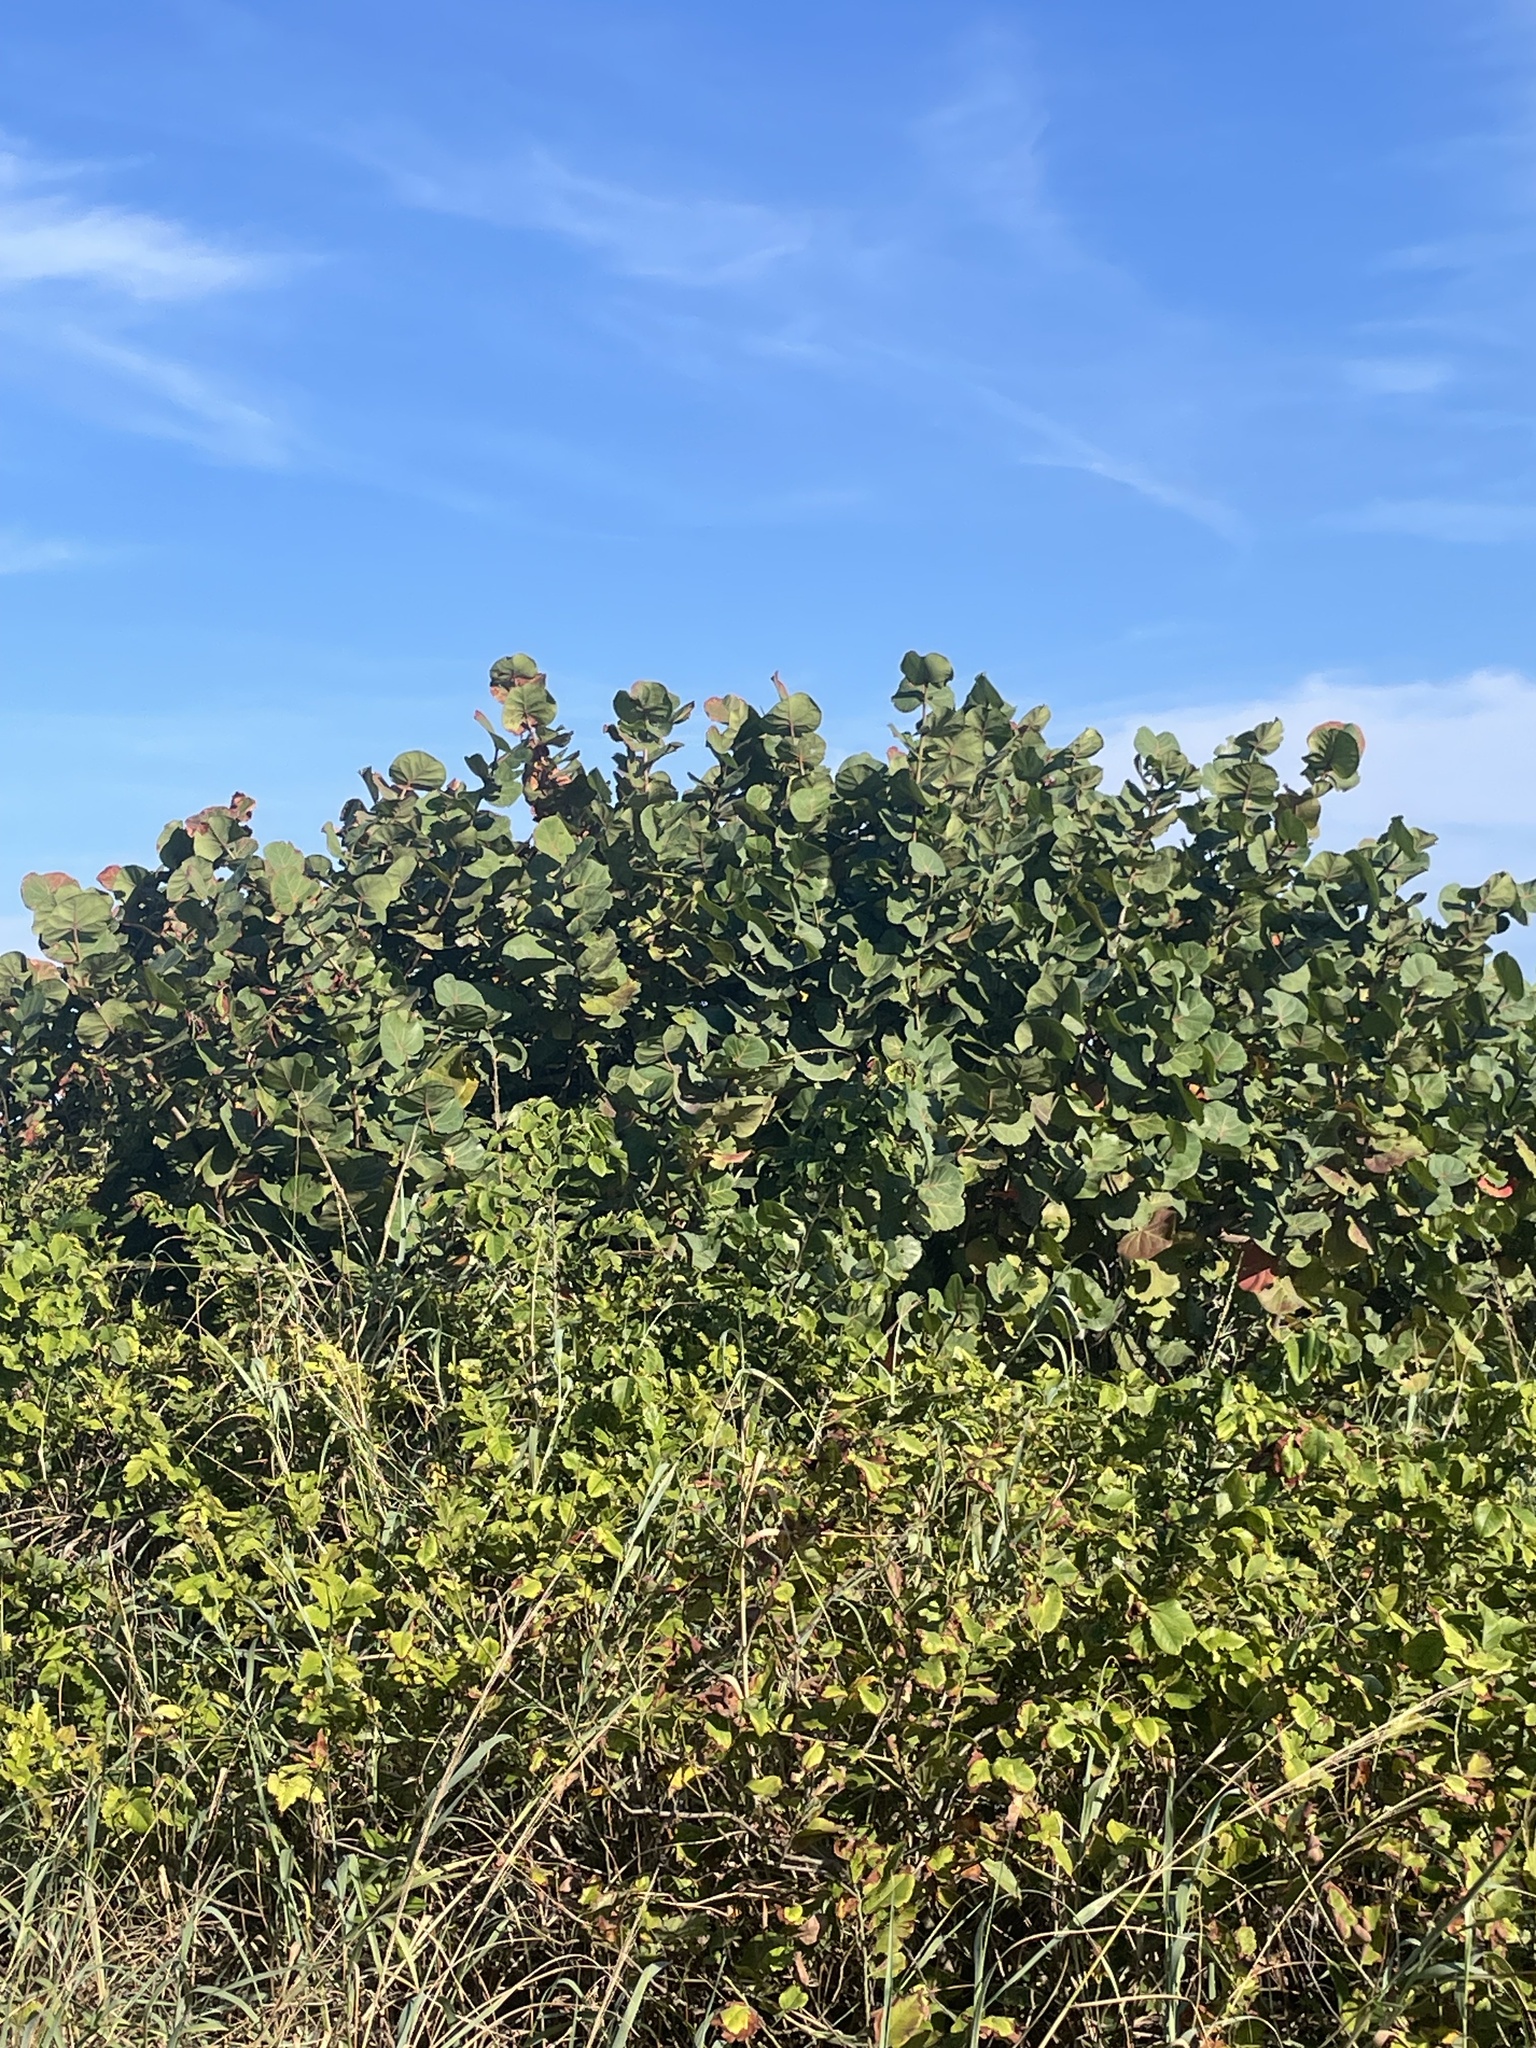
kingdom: Plantae
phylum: Tracheophyta
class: Magnoliopsida
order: Caryophyllales
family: Polygonaceae
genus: Coccoloba
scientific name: Coccoloba uvifera
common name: Seagrape
